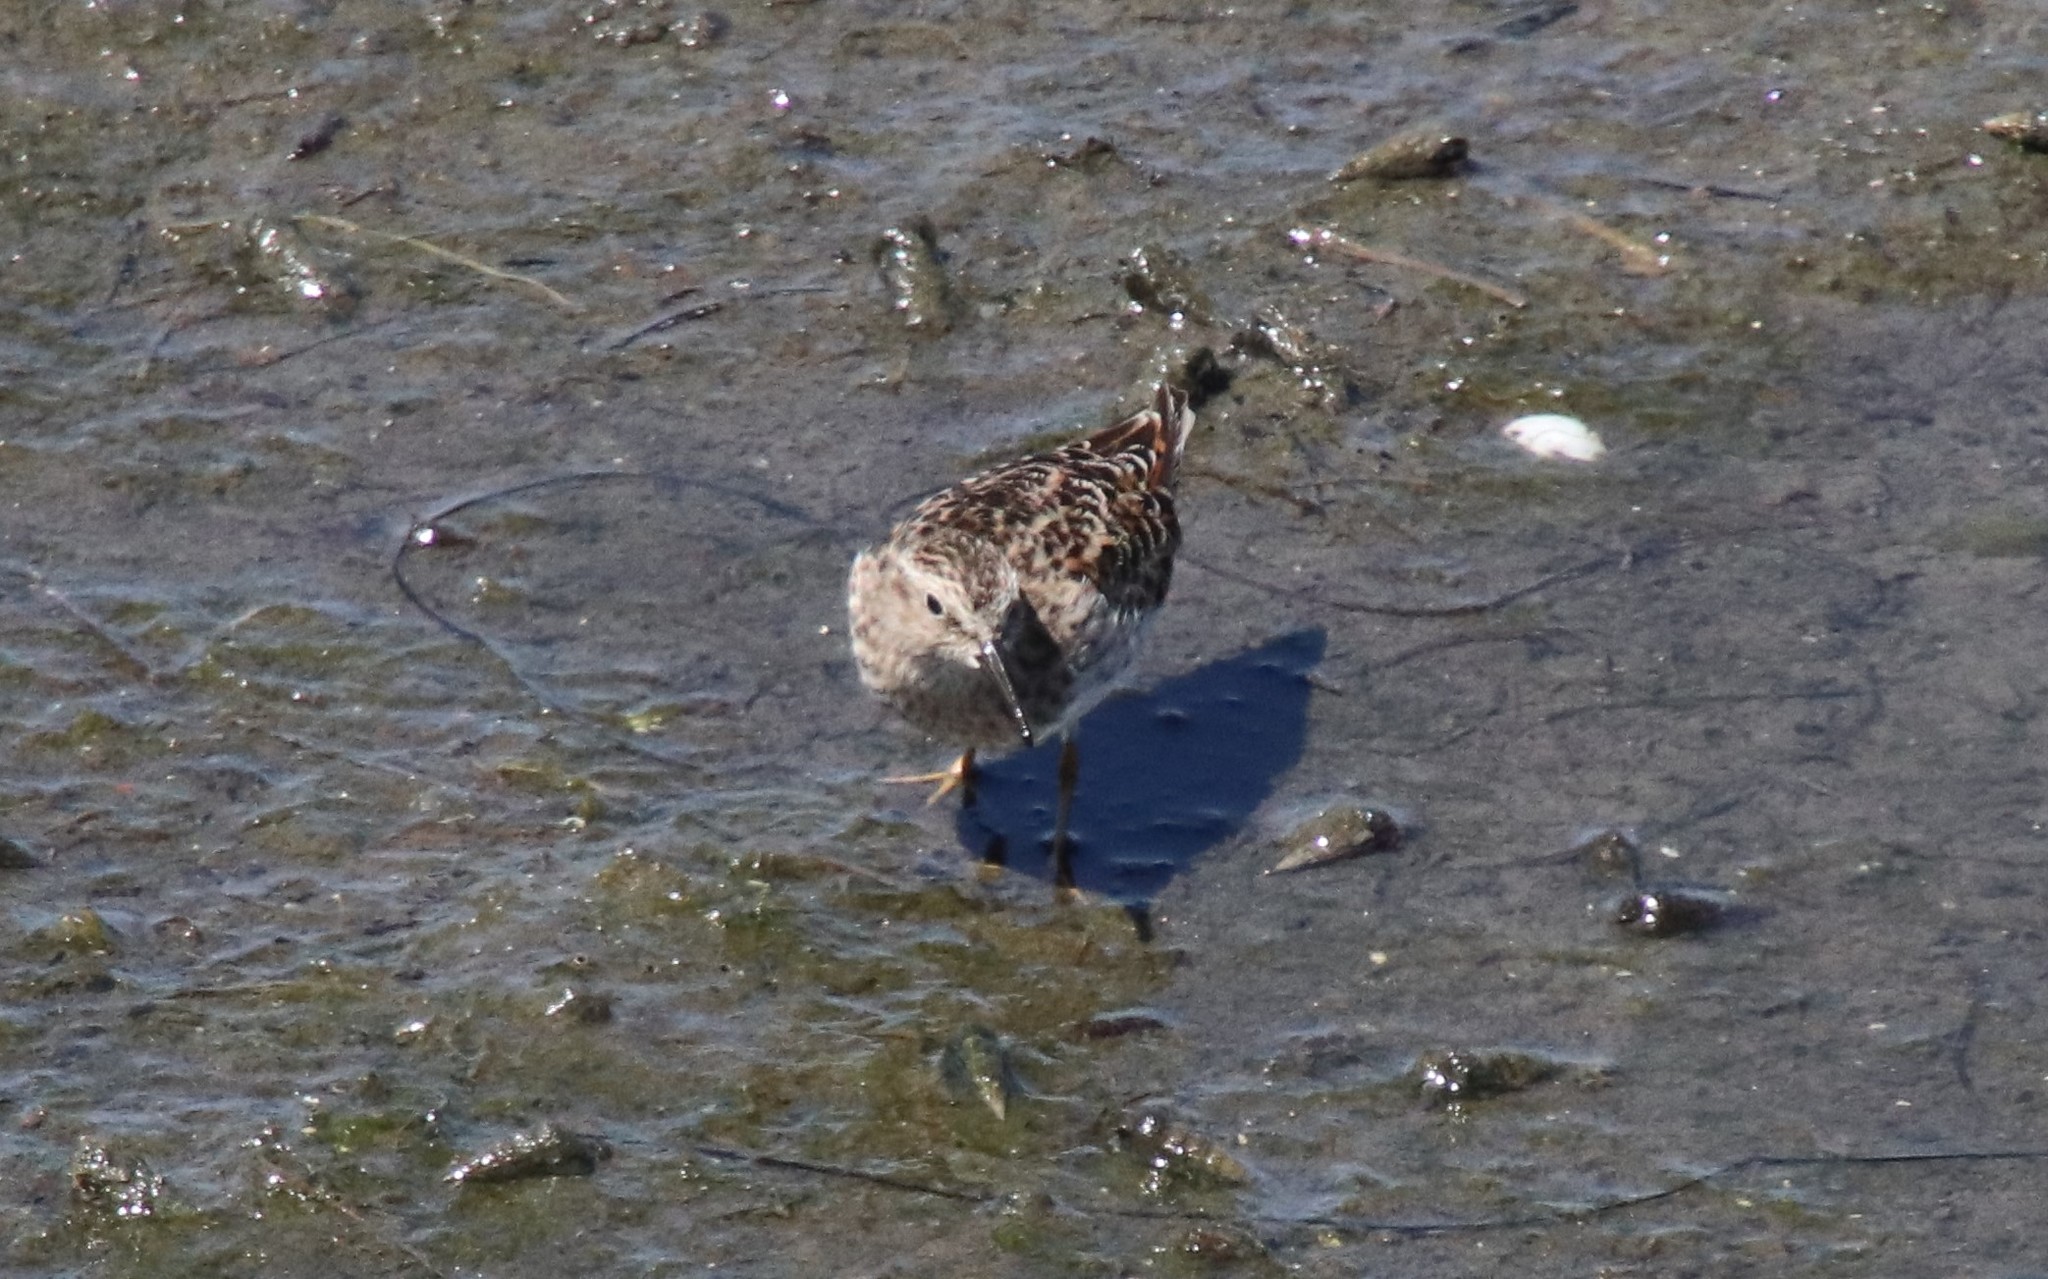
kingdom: Animalia
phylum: Chordata
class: Aves
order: Charadriiformes
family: Scolopacidae
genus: Calidris
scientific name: Calidris minutilla
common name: Least sandpiper
